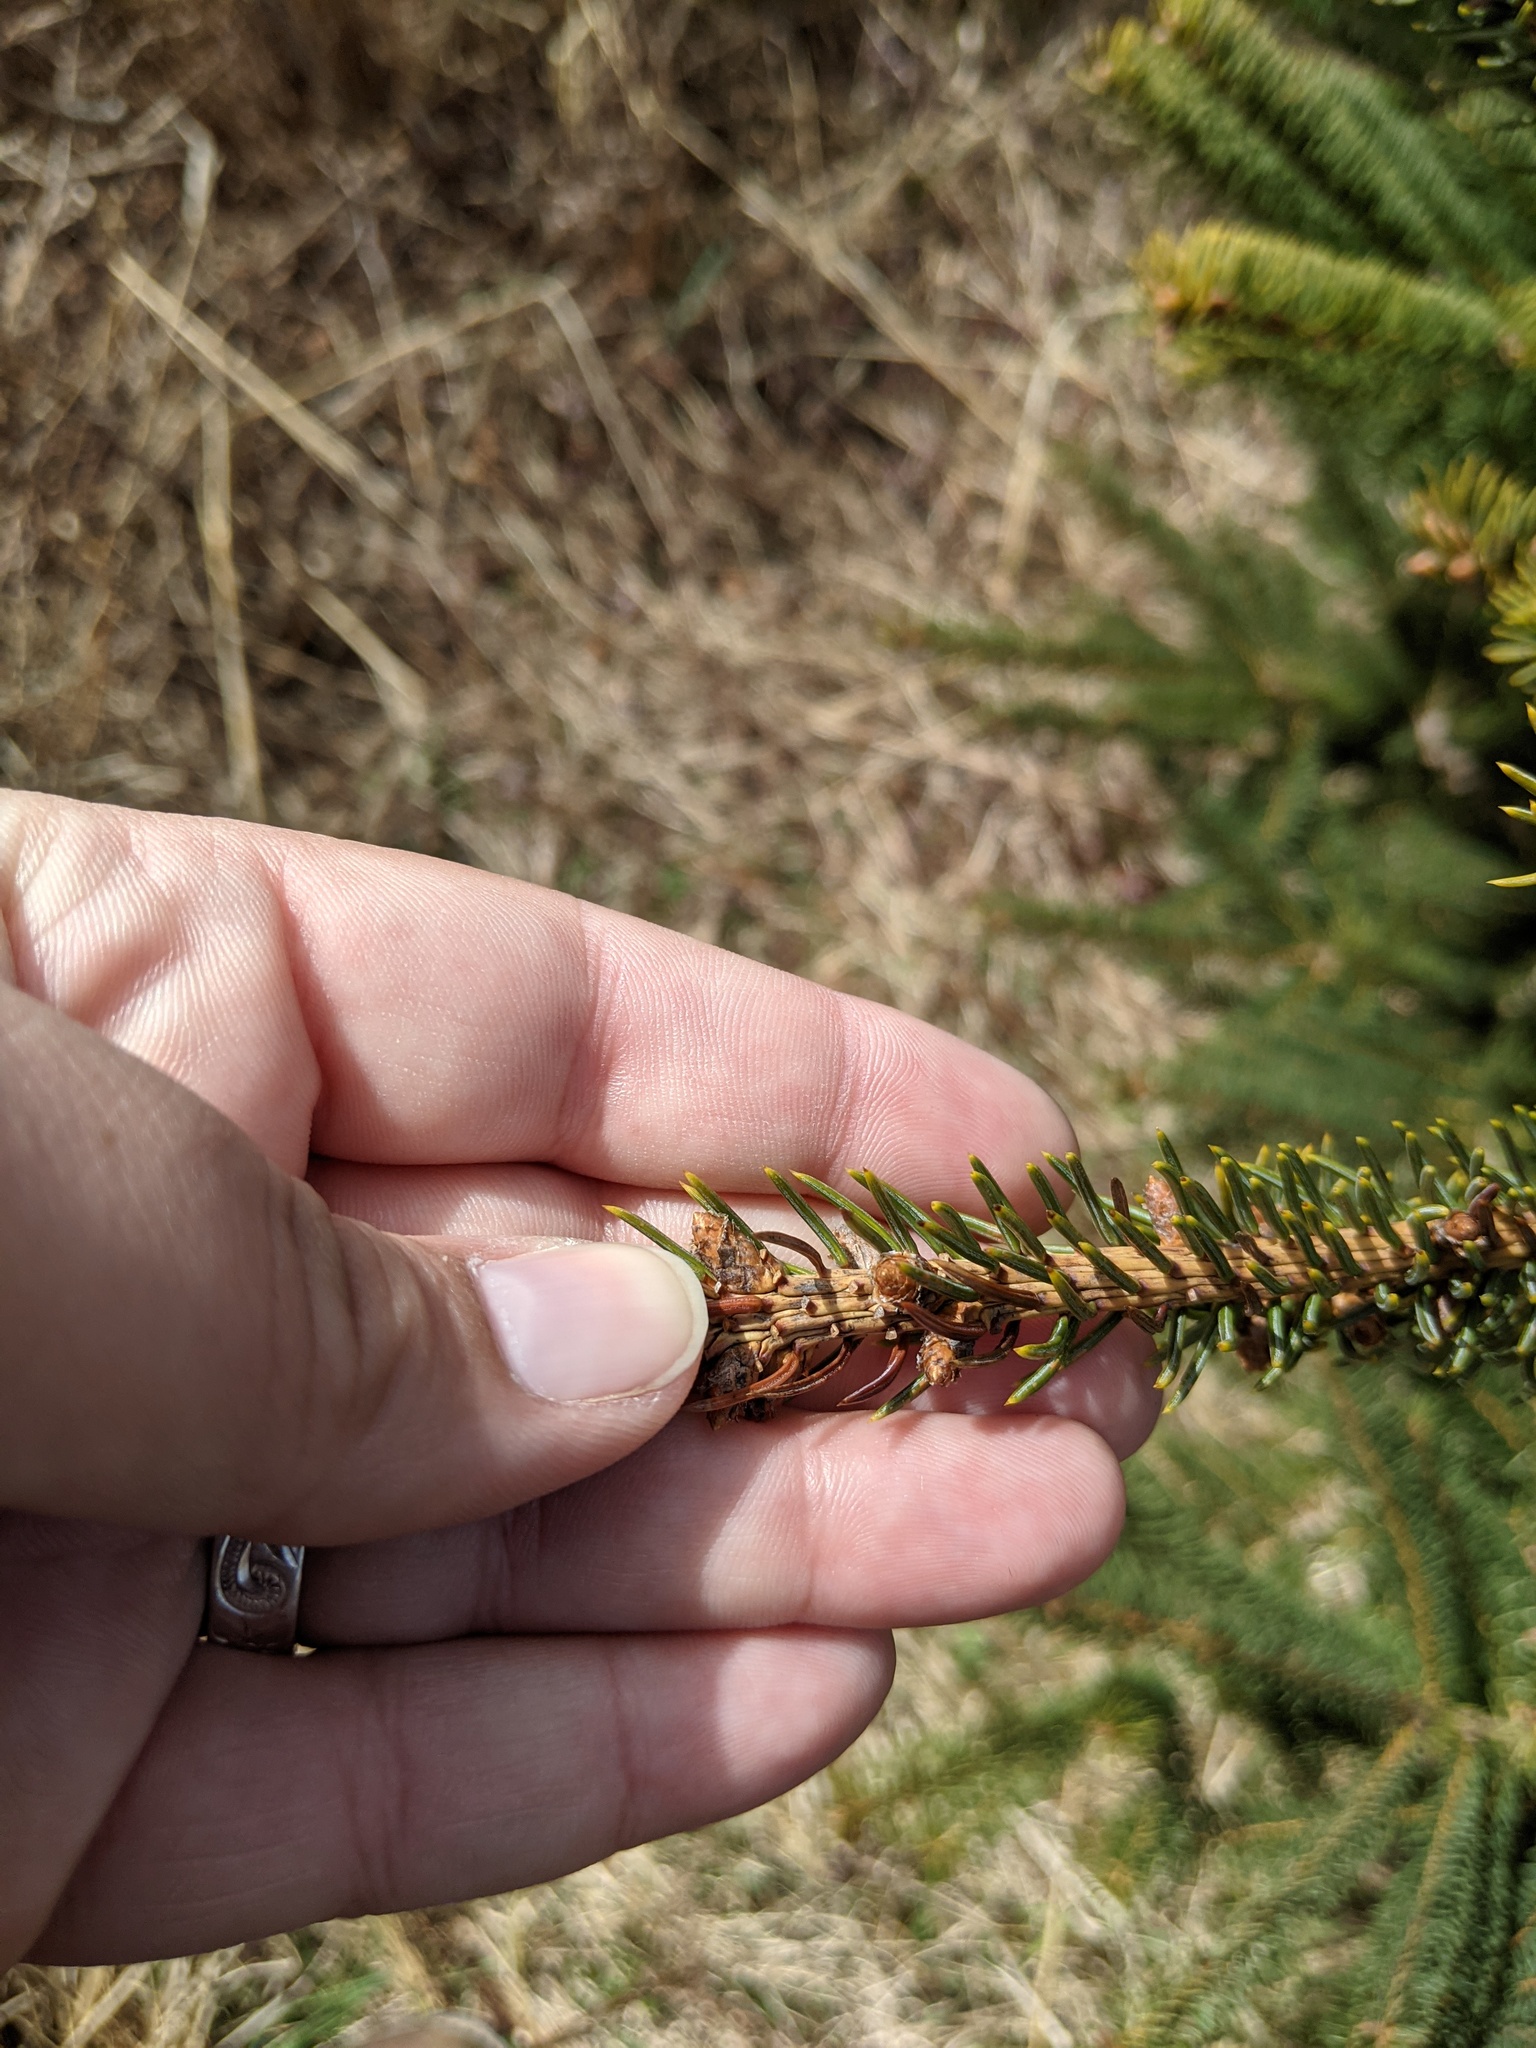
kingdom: Plantae
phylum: Tracheophyta
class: Pinopsida
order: Pinales
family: Pinaceae
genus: Picea
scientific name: Picea glauca
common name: White spruce
